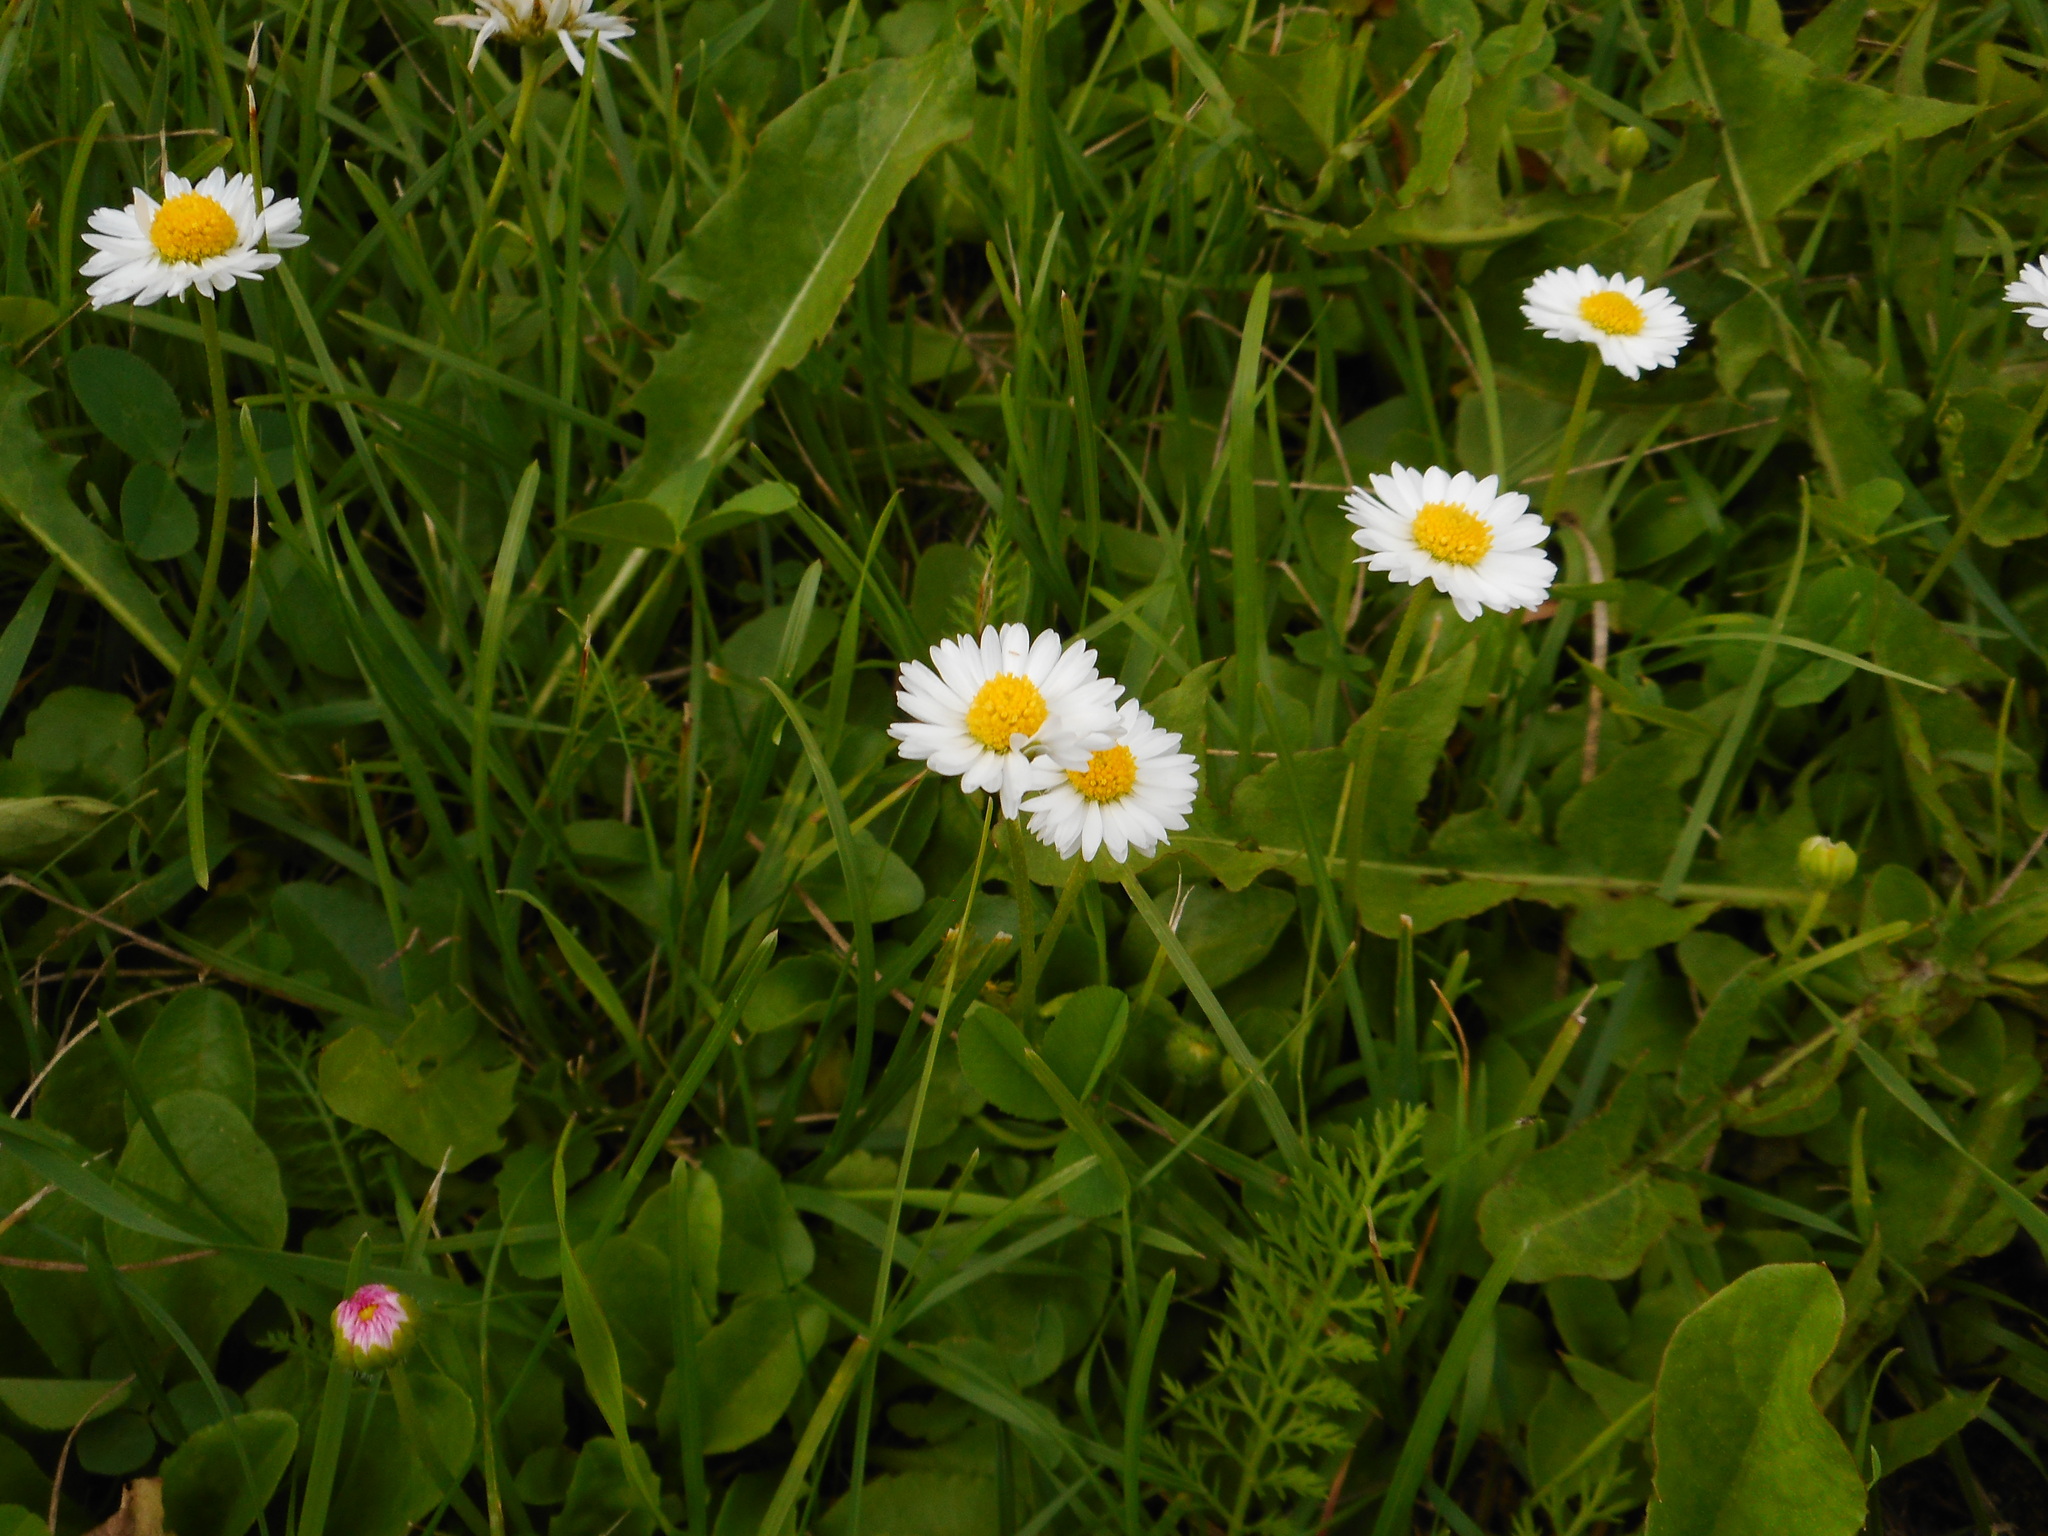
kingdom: Plantae
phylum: Tracheophyta
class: Magnoliopsida
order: Asterales
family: Asteraceae
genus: Bellis
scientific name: Bellis perennis
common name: Lawndaisy
